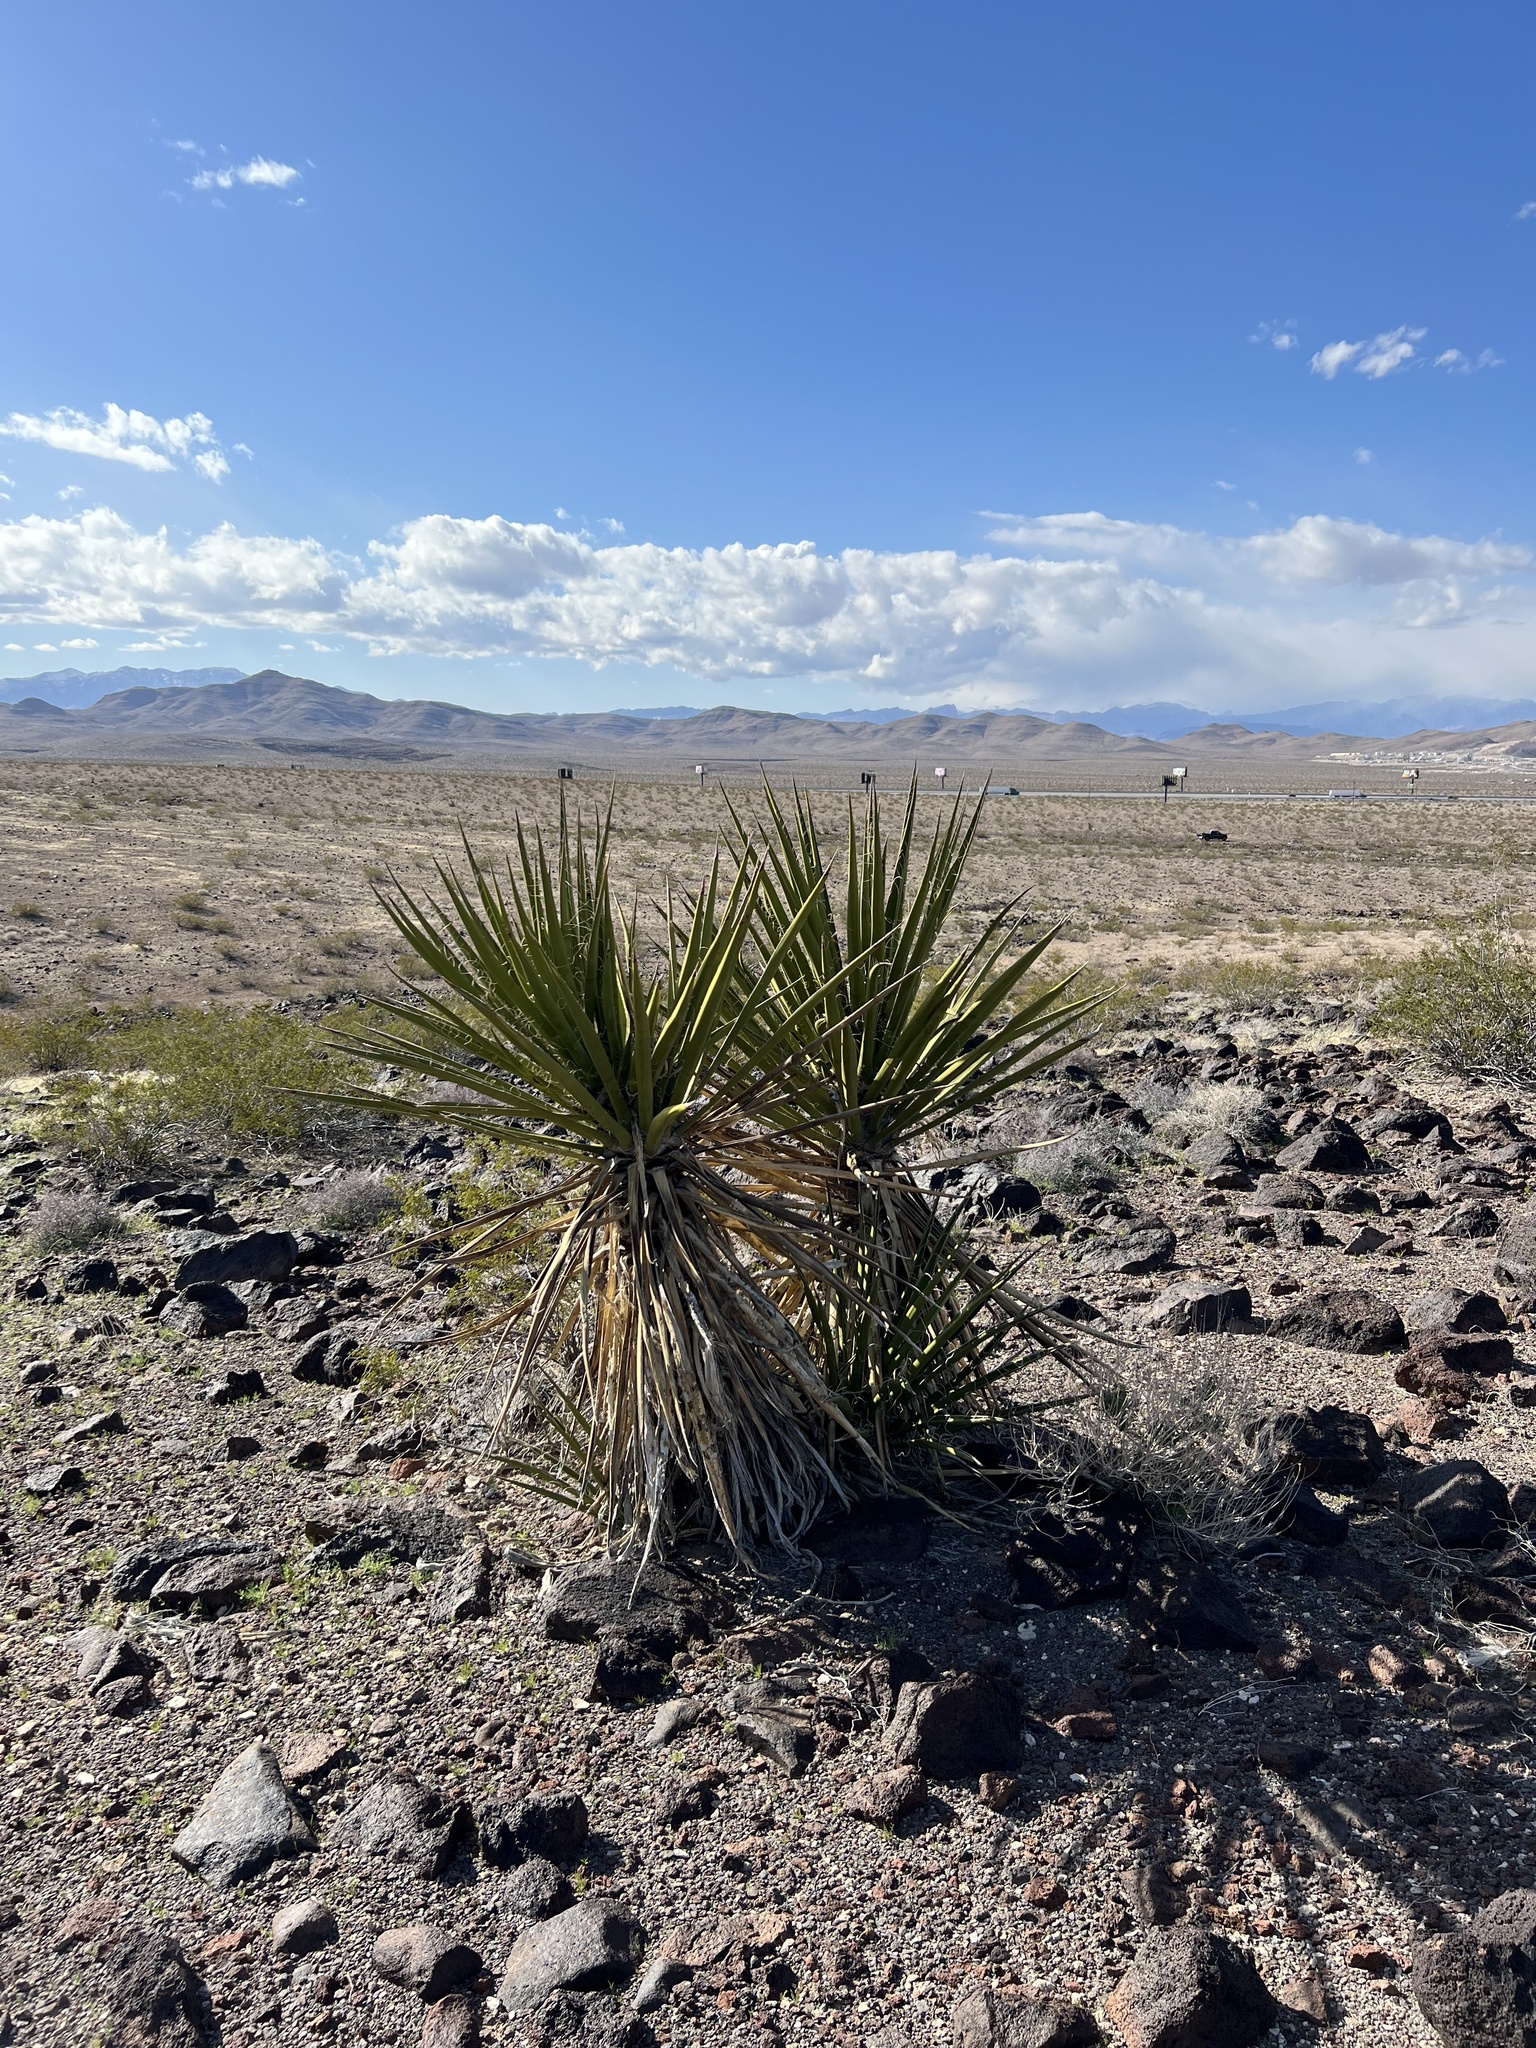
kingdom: Plantae
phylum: Tracheophyta
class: Liliopsida
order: Asparagales
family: Asparagaceae
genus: Yucca
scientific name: Yucca schidigera
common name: Mojave yucca
